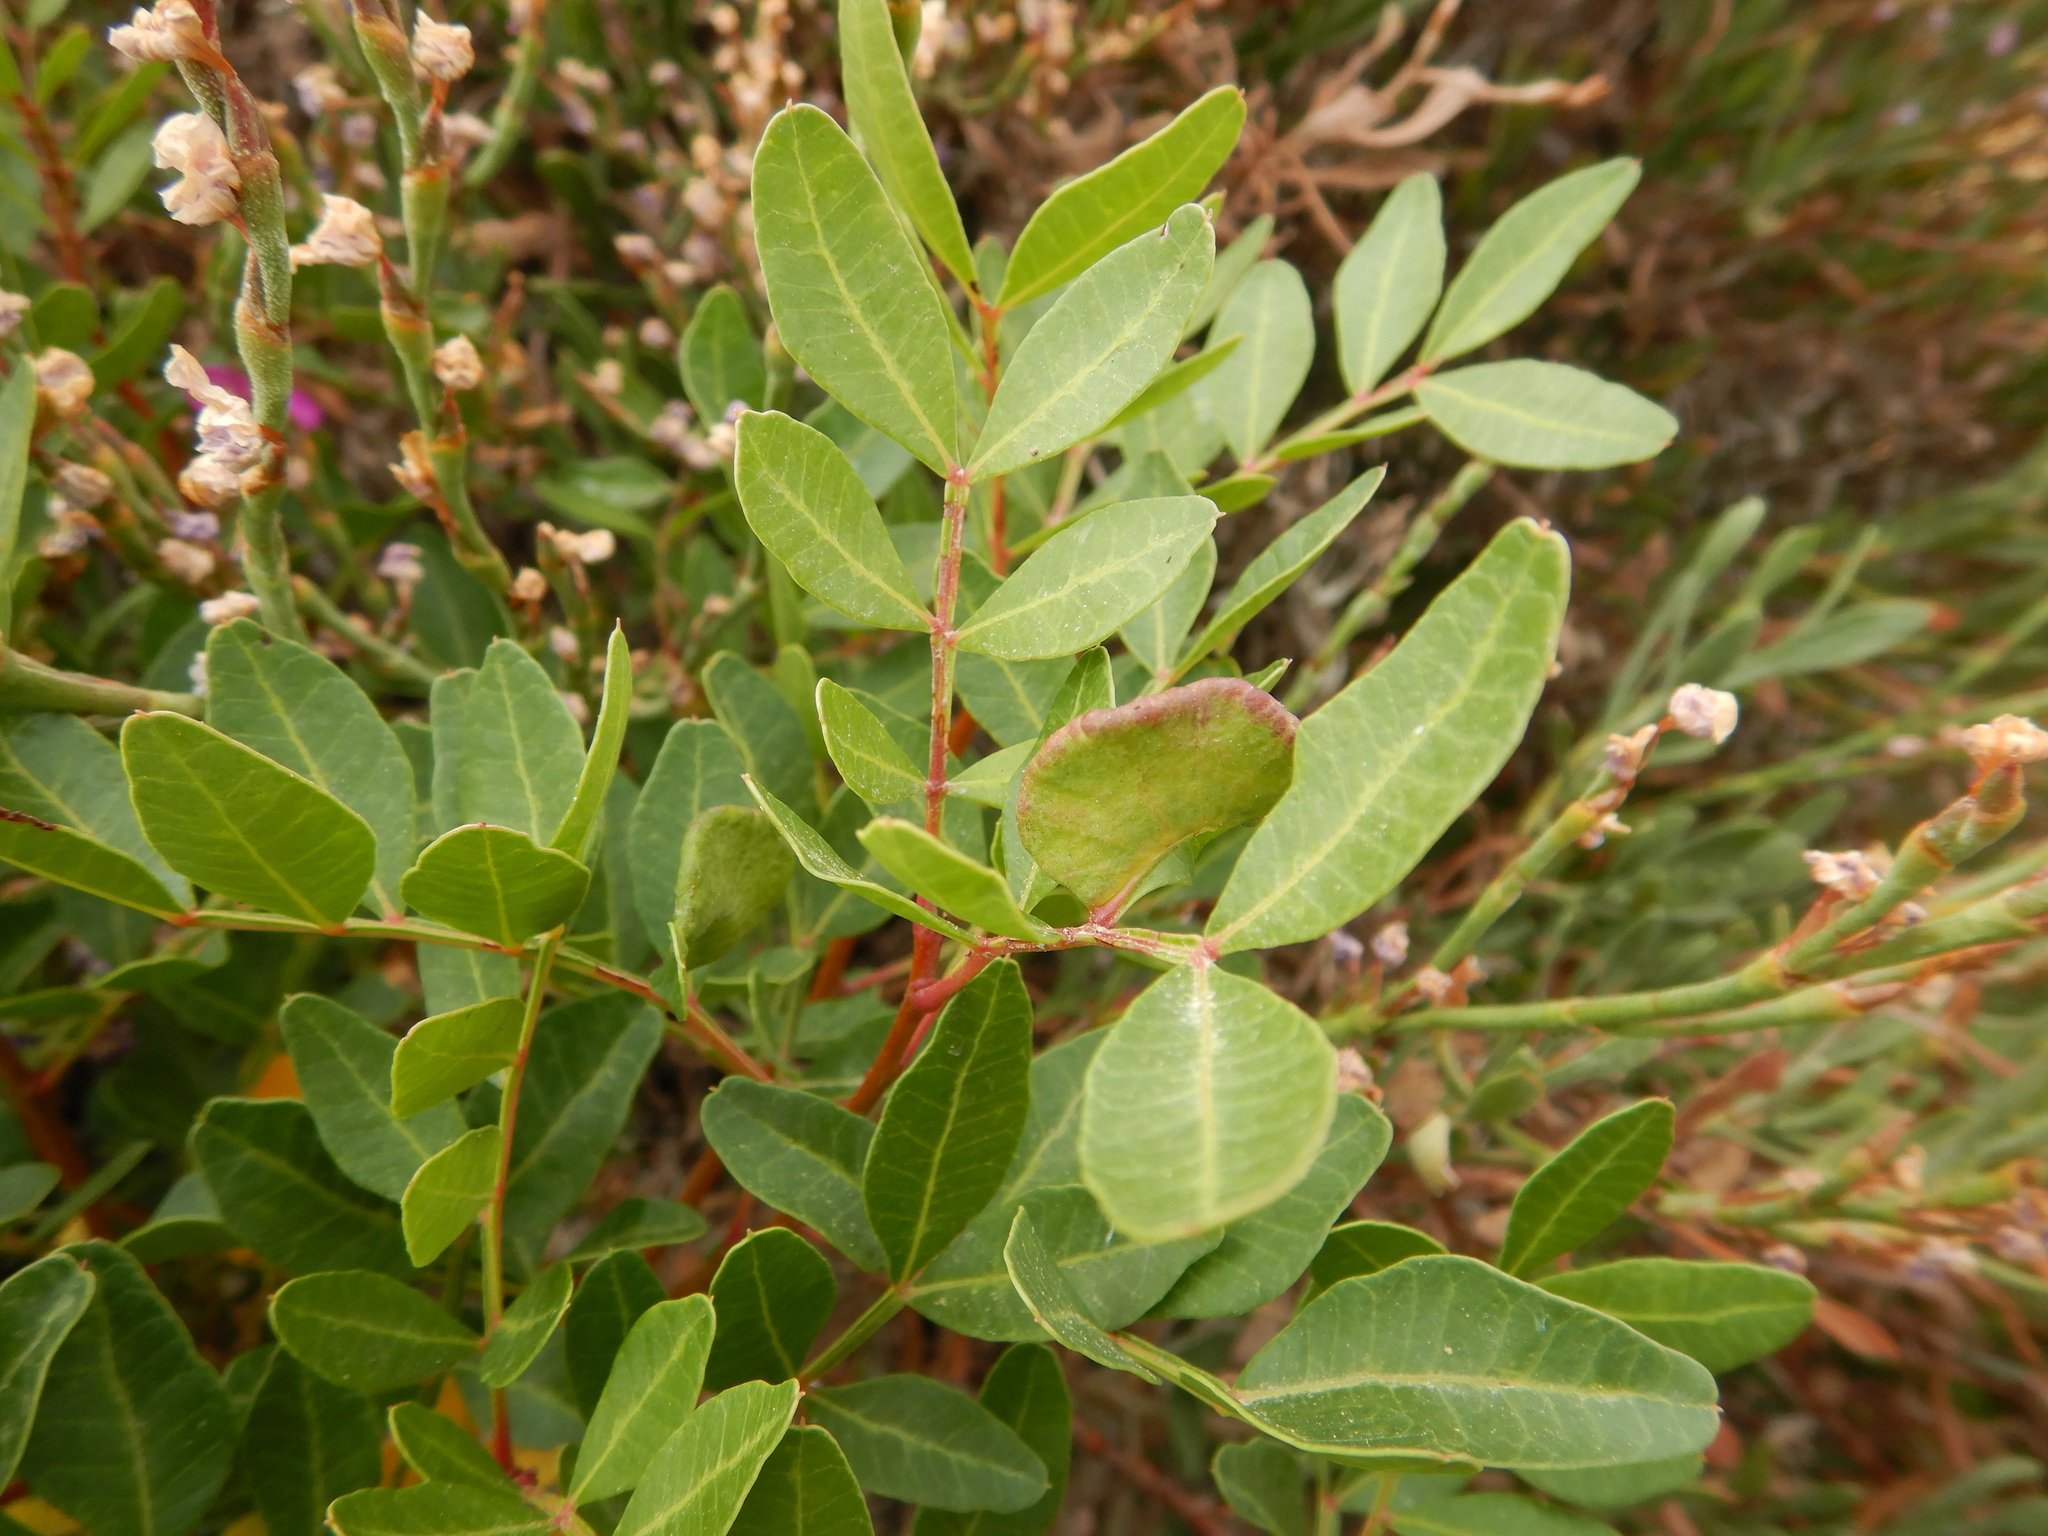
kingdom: Animalia
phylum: Arthropoda
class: Insecta
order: Hemiptera
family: Aphididae
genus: Aploneura
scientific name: Aploneura lentisci
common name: Mealy grass root aphid
